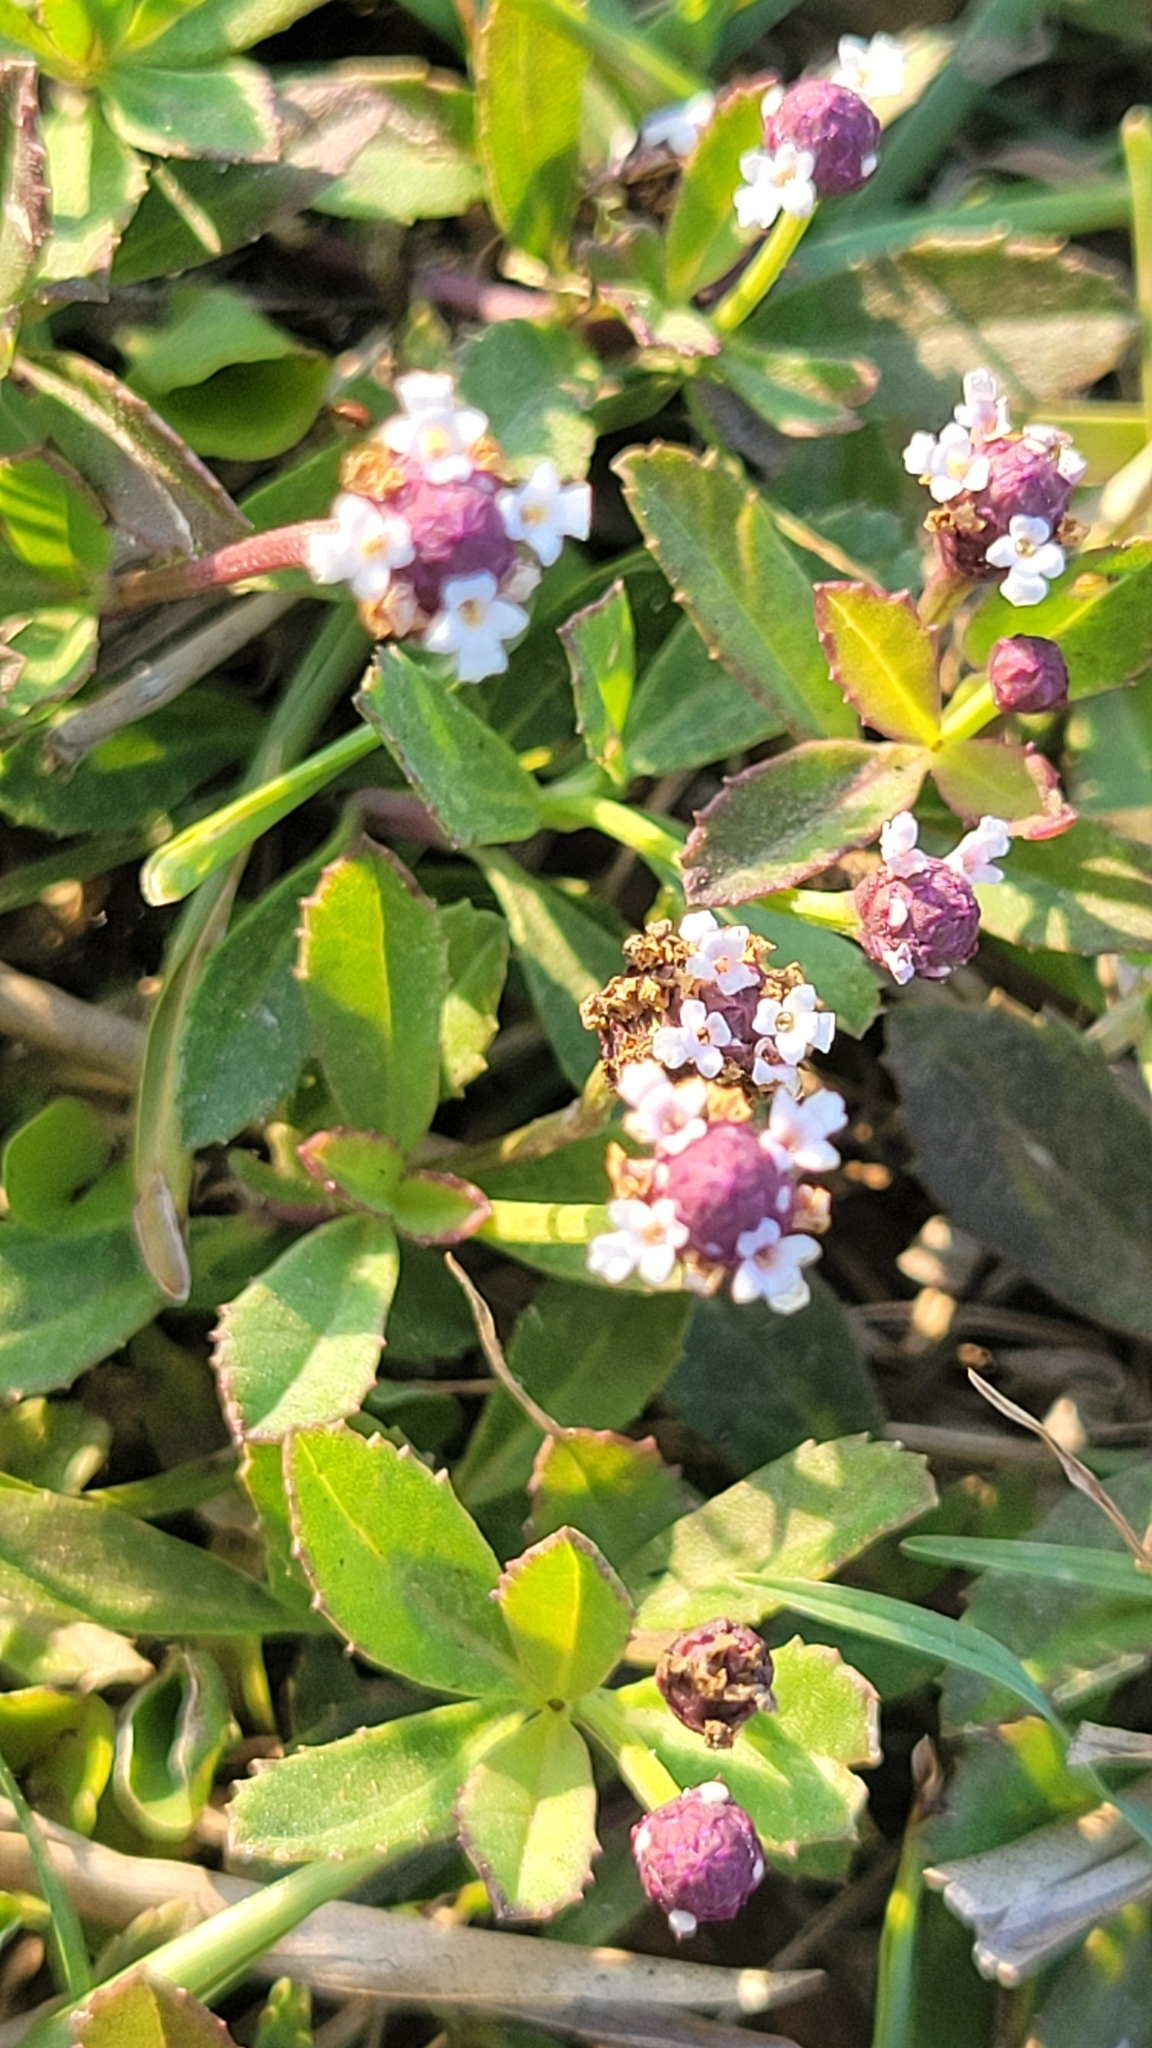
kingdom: Plantae
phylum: Tracheophyta
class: Magnoliopsida
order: Lamiales
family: Verbenaceae
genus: Phyla
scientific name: Phyla nodiflora
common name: Frogfruit
